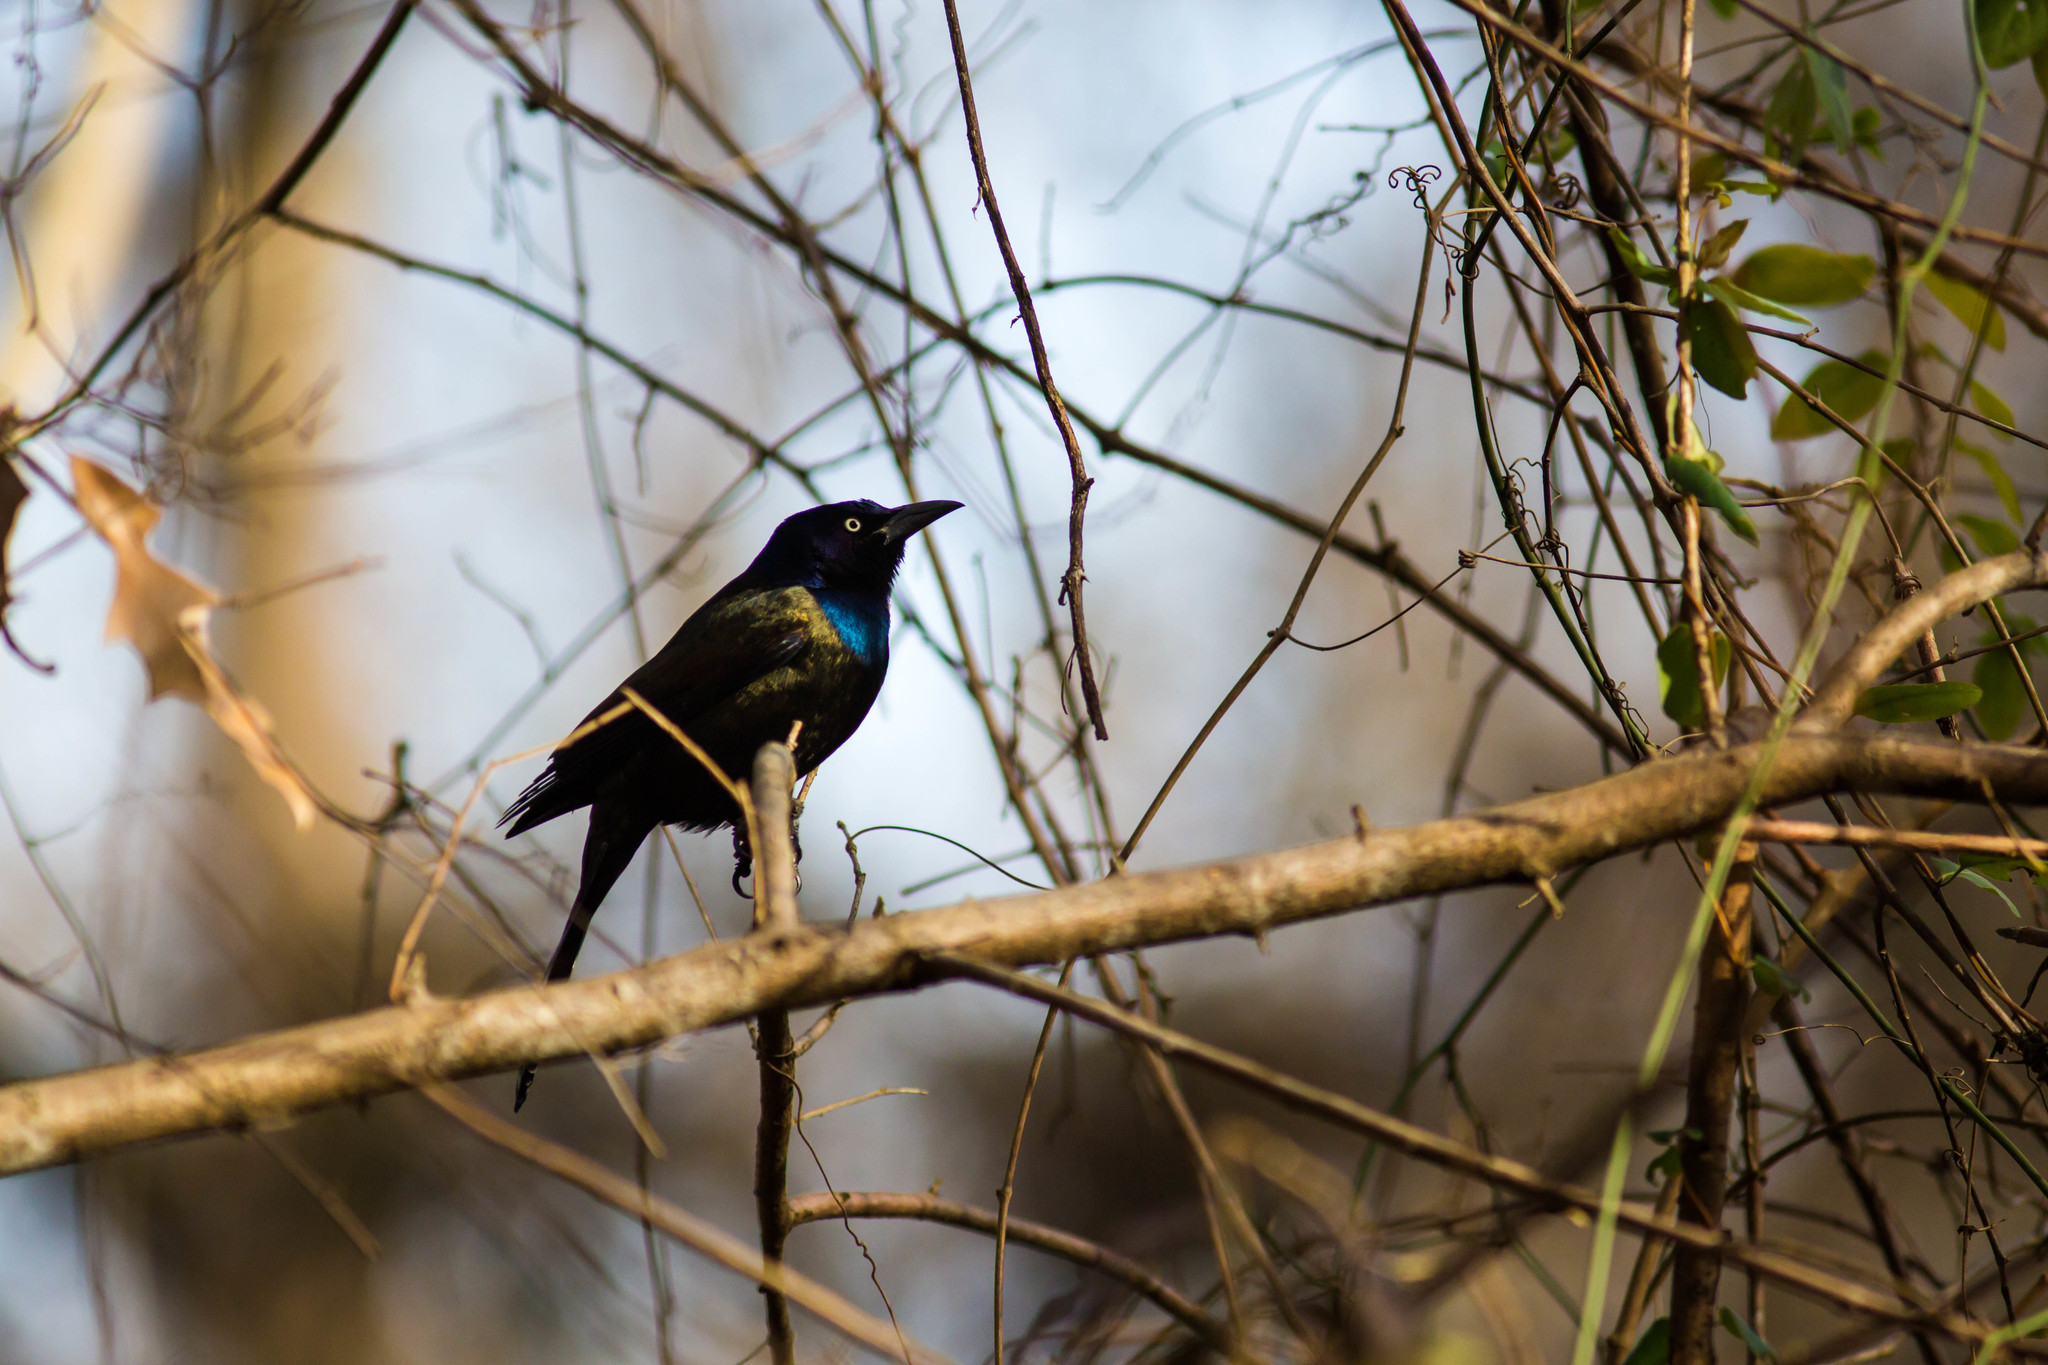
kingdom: Animalia
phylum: Chordata
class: Aves
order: Passeriformes
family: Icteridae
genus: Quiscalus
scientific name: Quiscalus quiscula
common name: Common grackle
